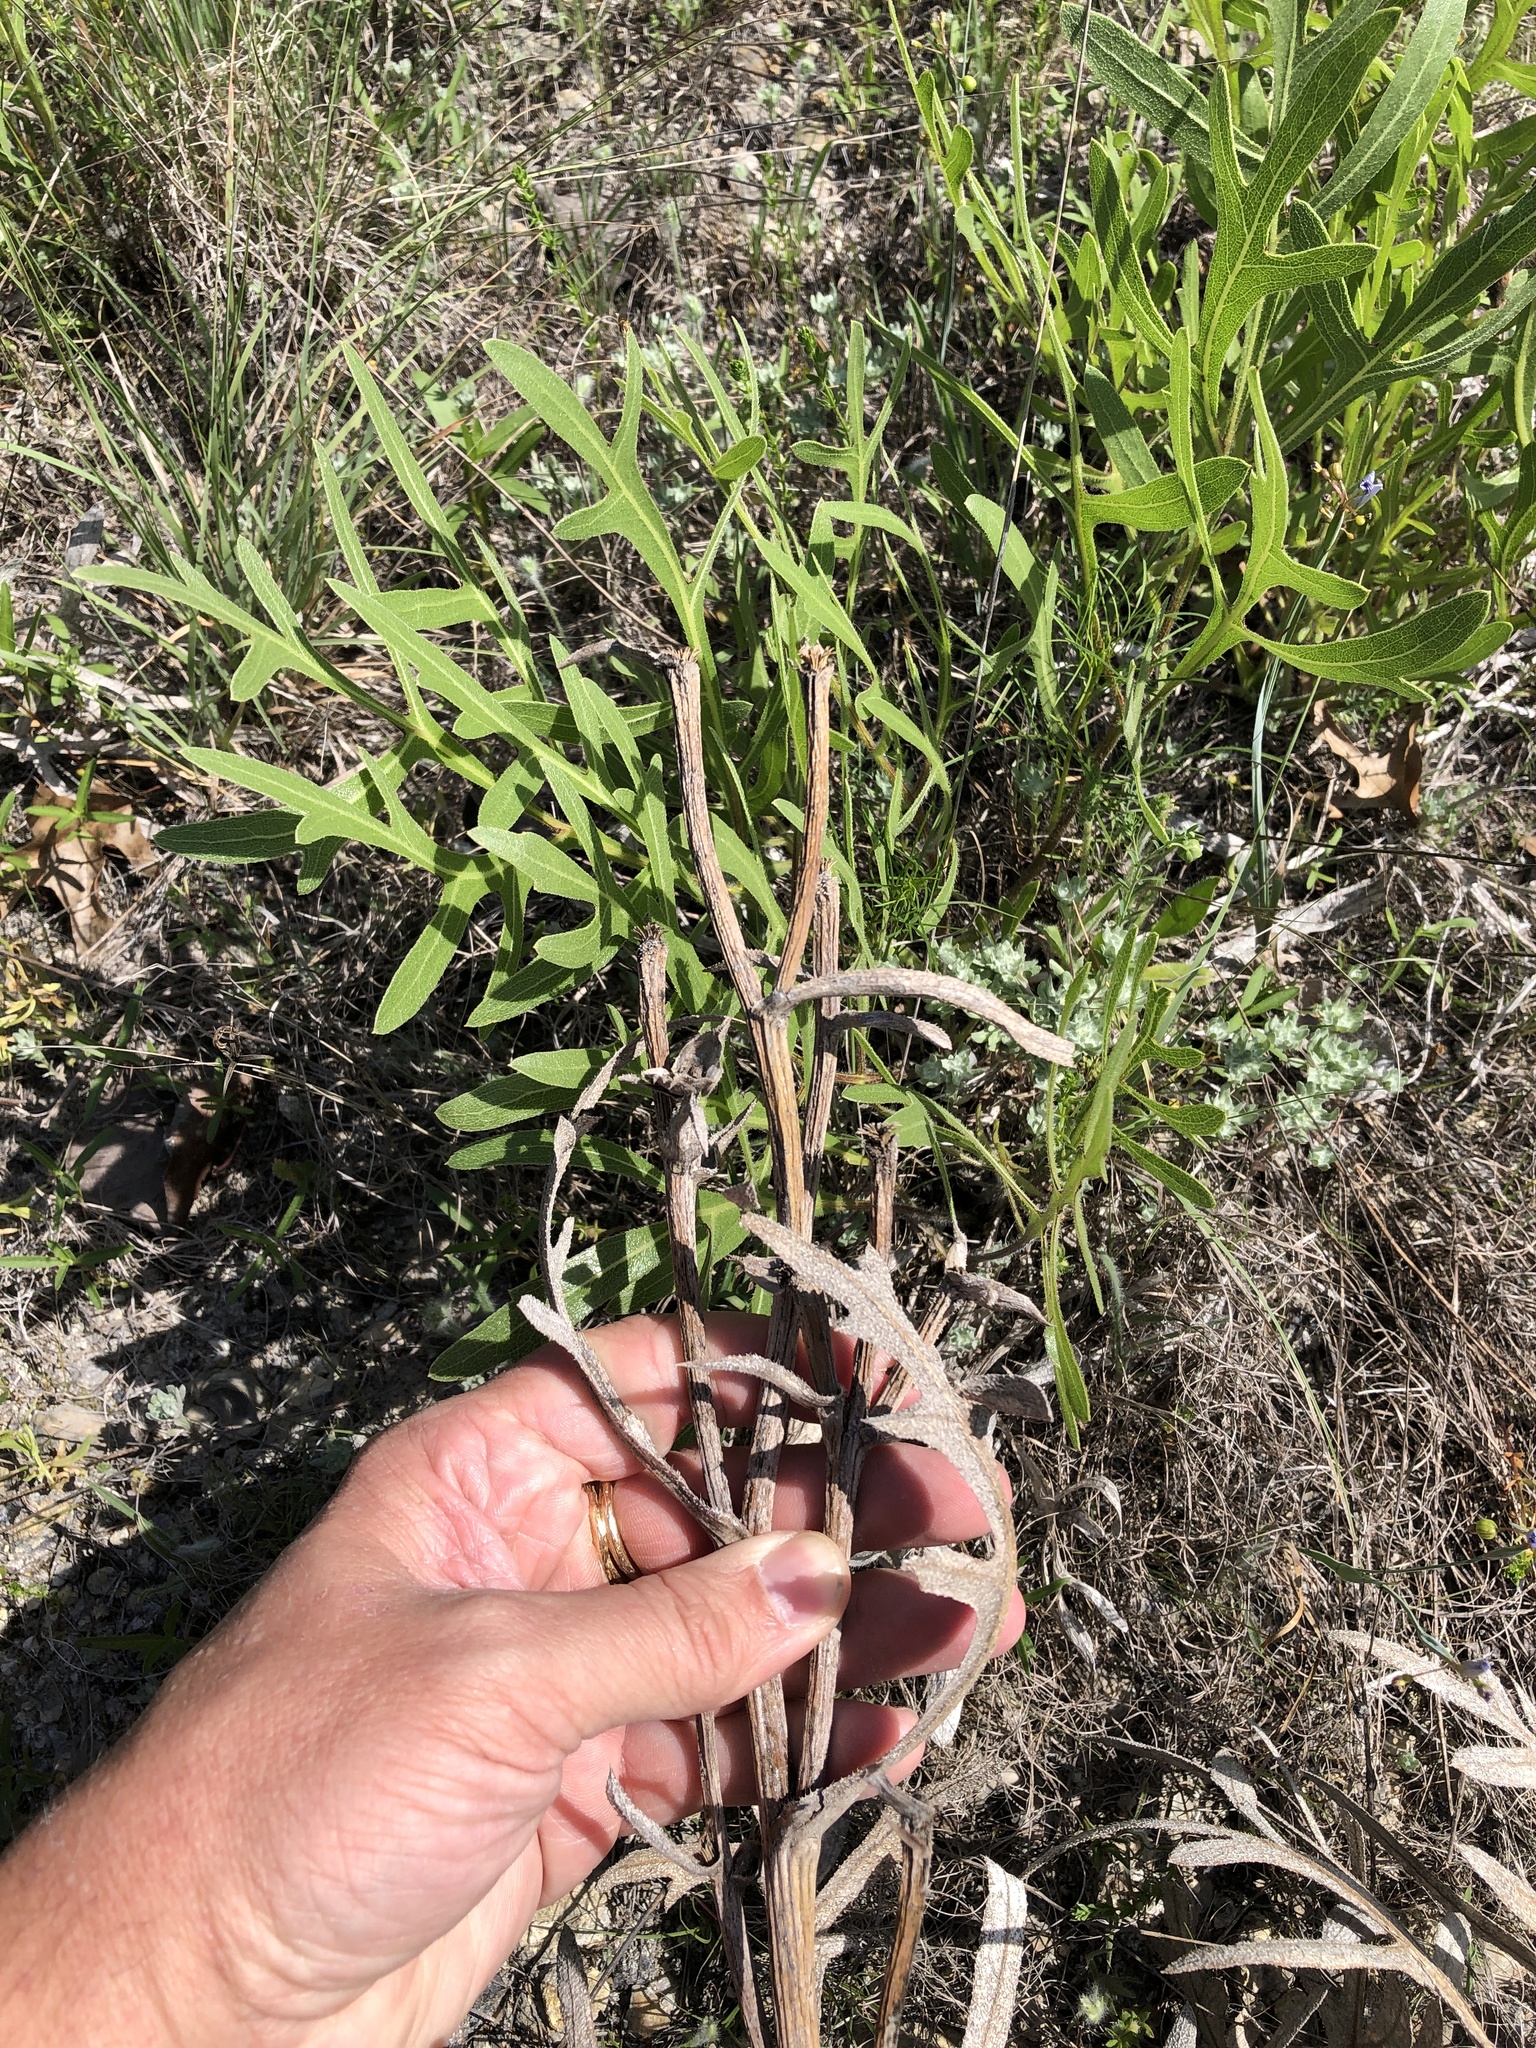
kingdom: Plantae
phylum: Tracheophyta
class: Magnoliopsida
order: Asterales
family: Asteraceae
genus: Silphium
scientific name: Silphium albiflorum
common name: White rosinweed
